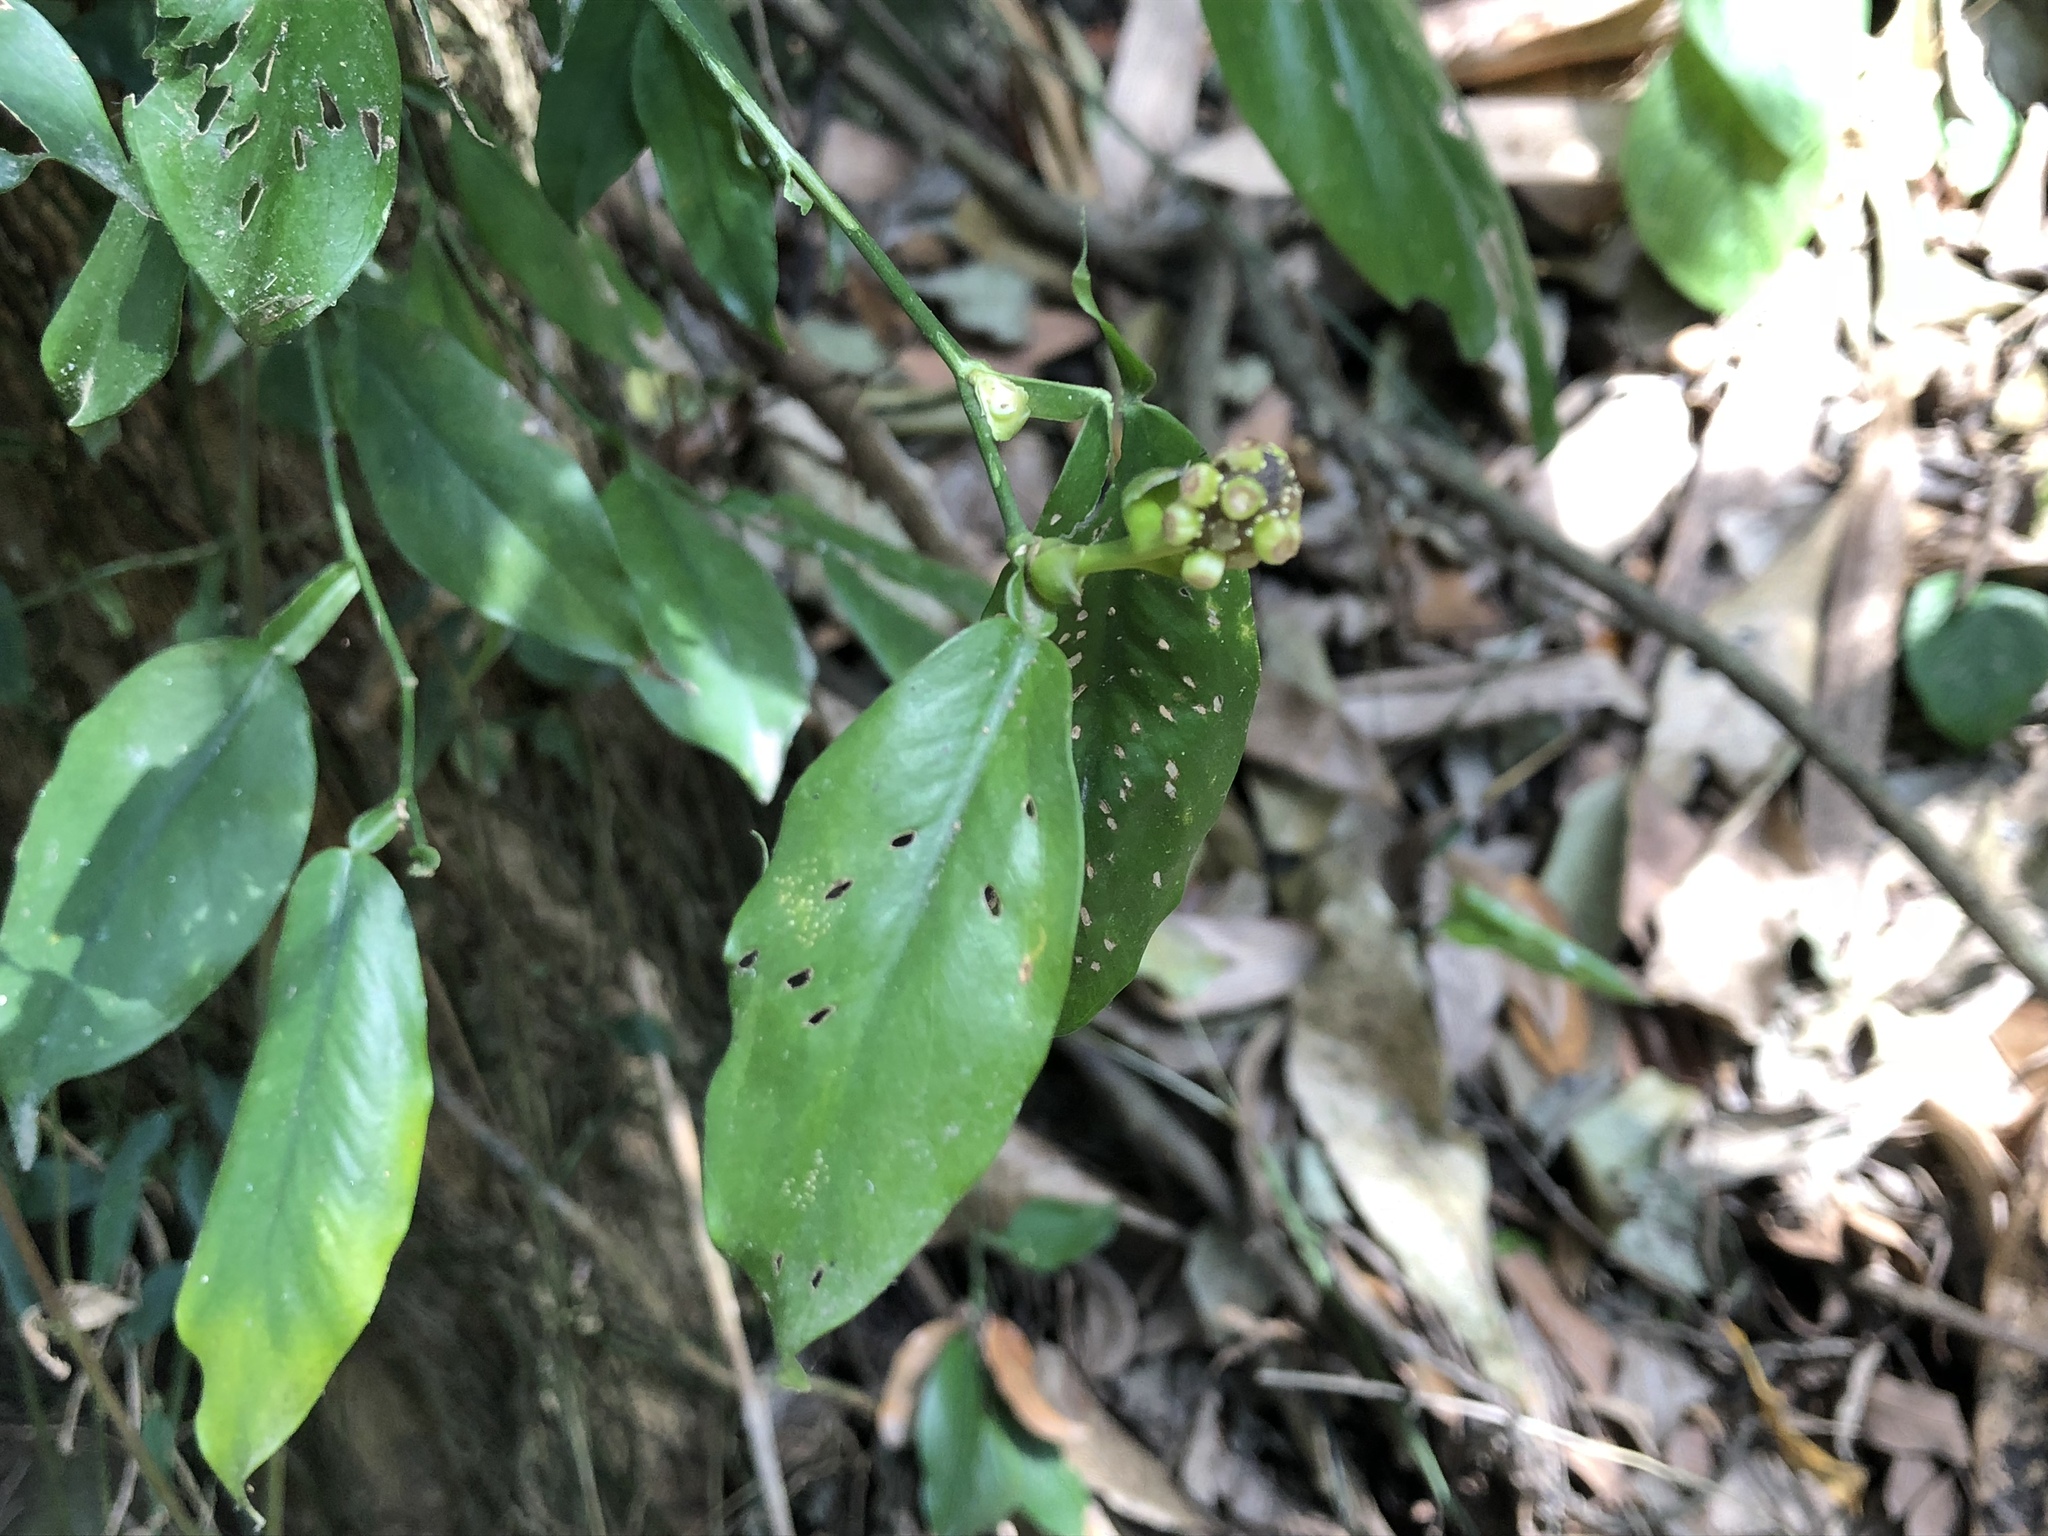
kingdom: Plantae
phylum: Tracheophyta
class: Liliopsida
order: Alismatales
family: Araceae
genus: Pothos
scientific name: Pothos chinensis
